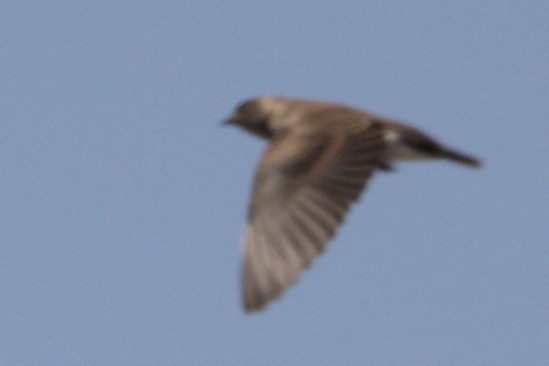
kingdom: Animalia
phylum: Chordata
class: Aves
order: Passeriformes
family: Hirundinidae
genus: Stelgidopteryx
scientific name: Stelgidopteryx serripennis
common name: Northern rough-winged swallow
